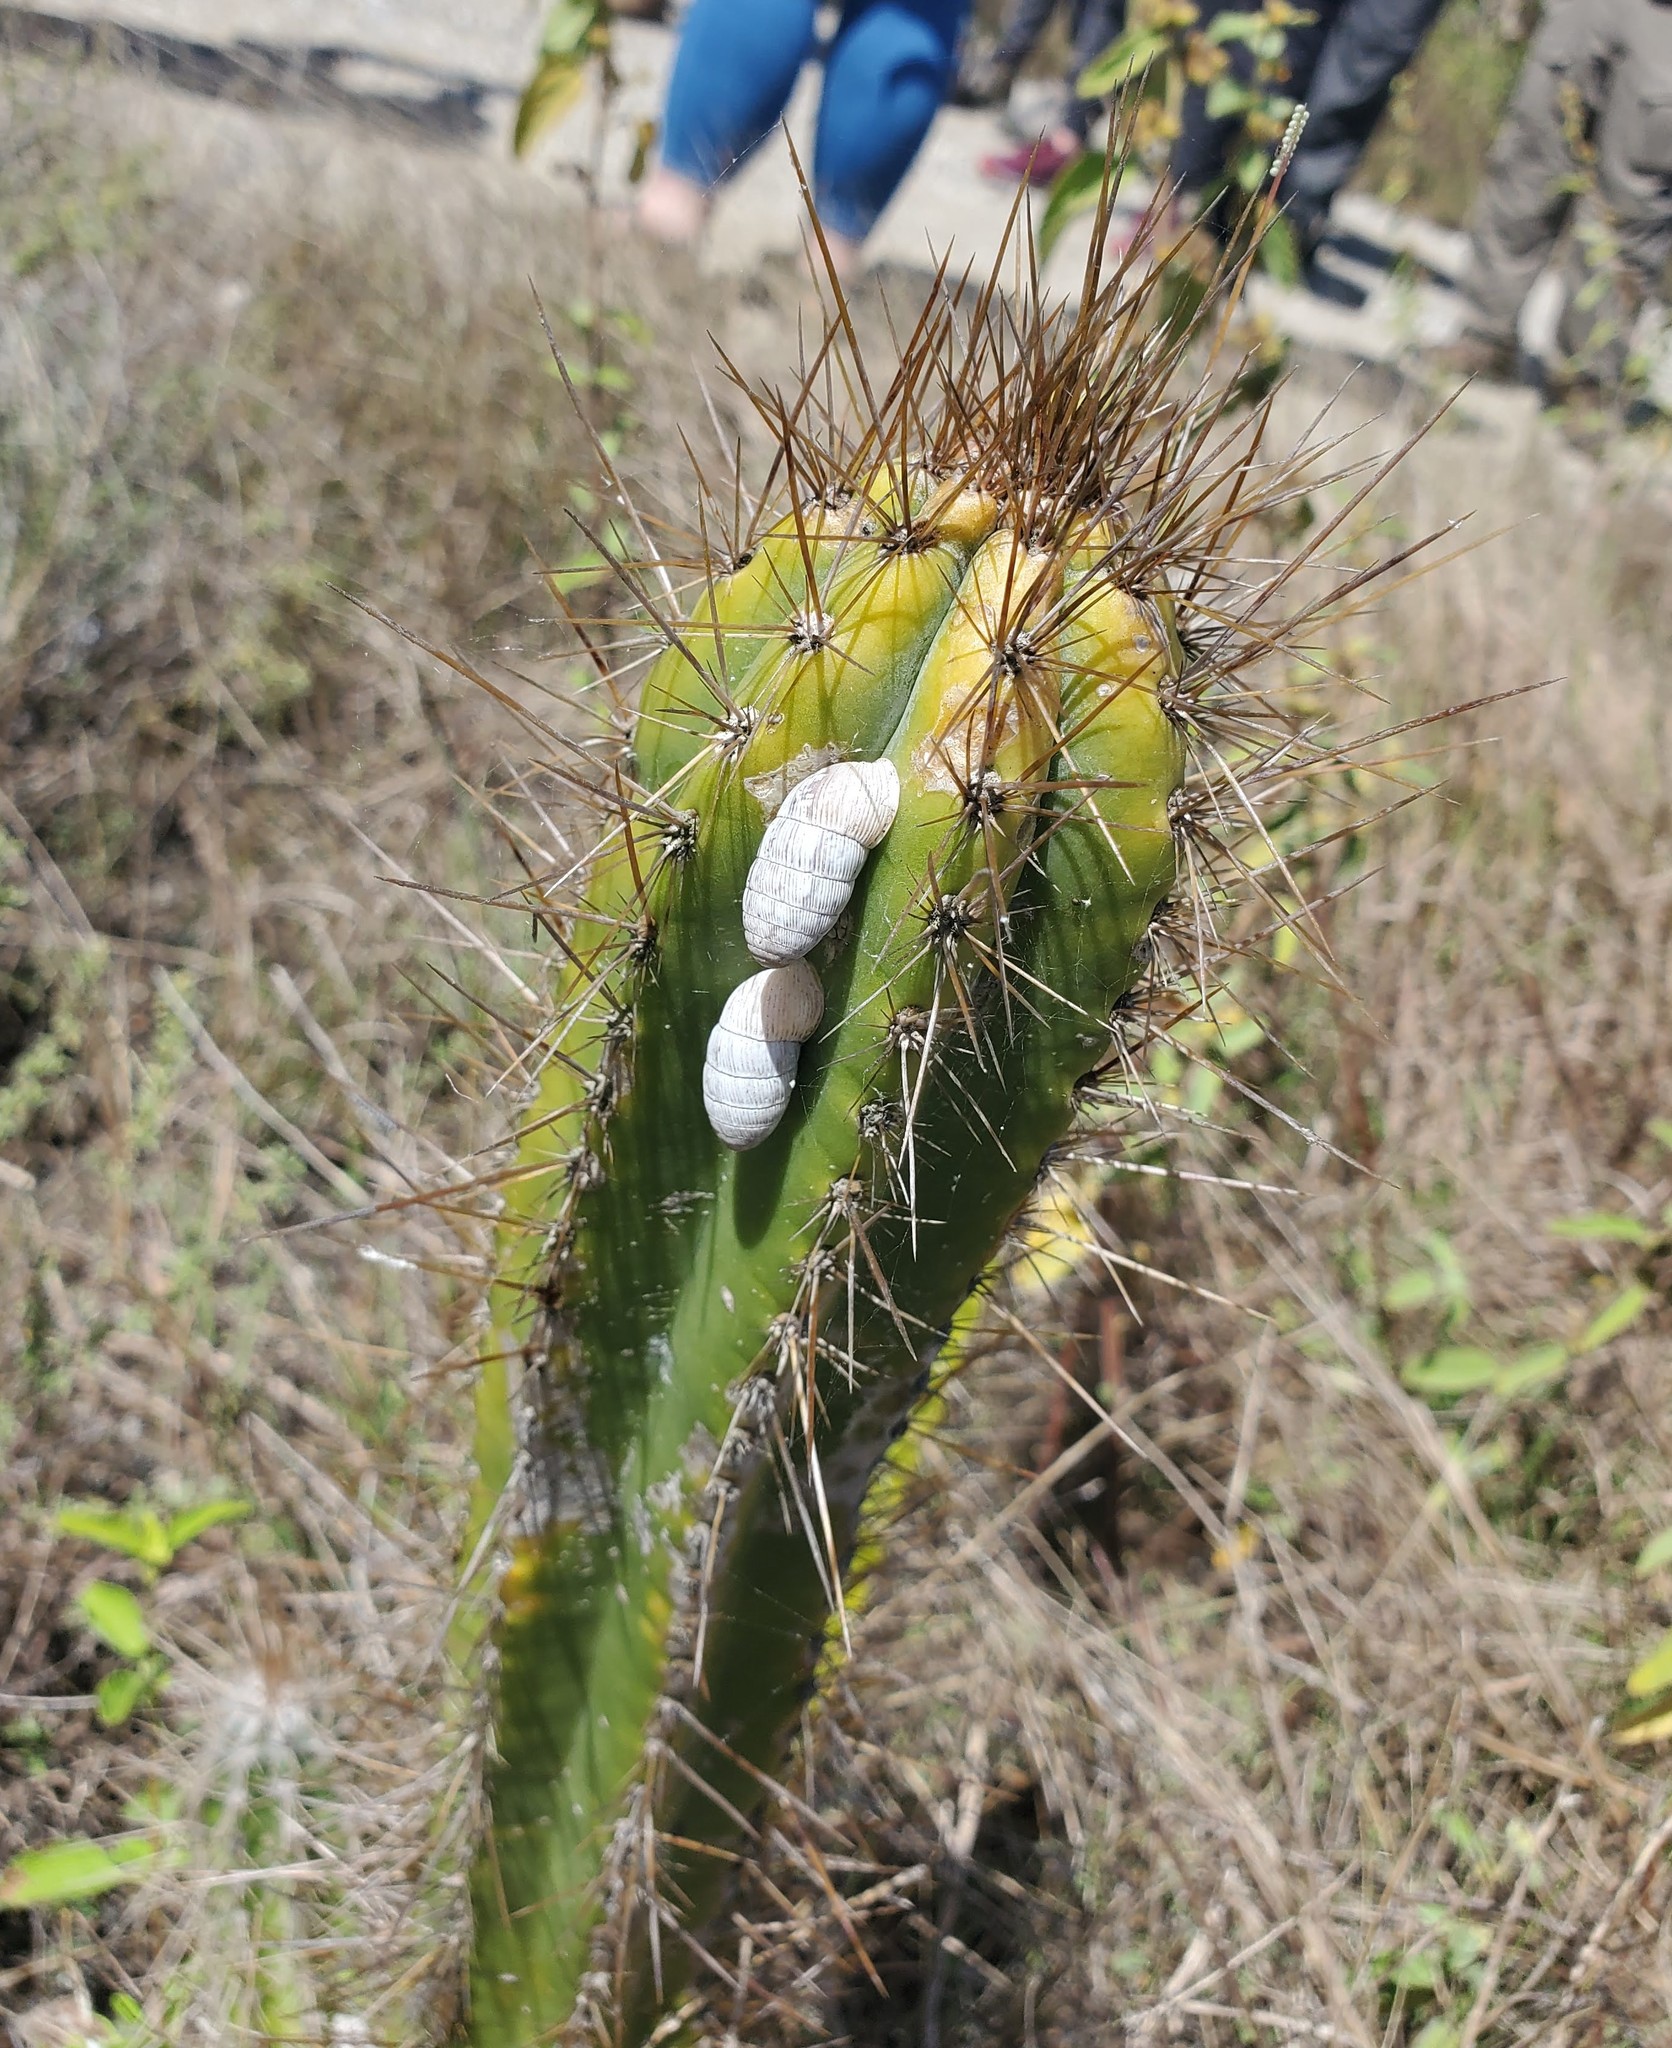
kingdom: Plantae
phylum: Tracheophyta
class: Magnoliopsida
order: Caryophyllales
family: Cactaceae
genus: Pilosocereus
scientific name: Pilosocereus armatus
